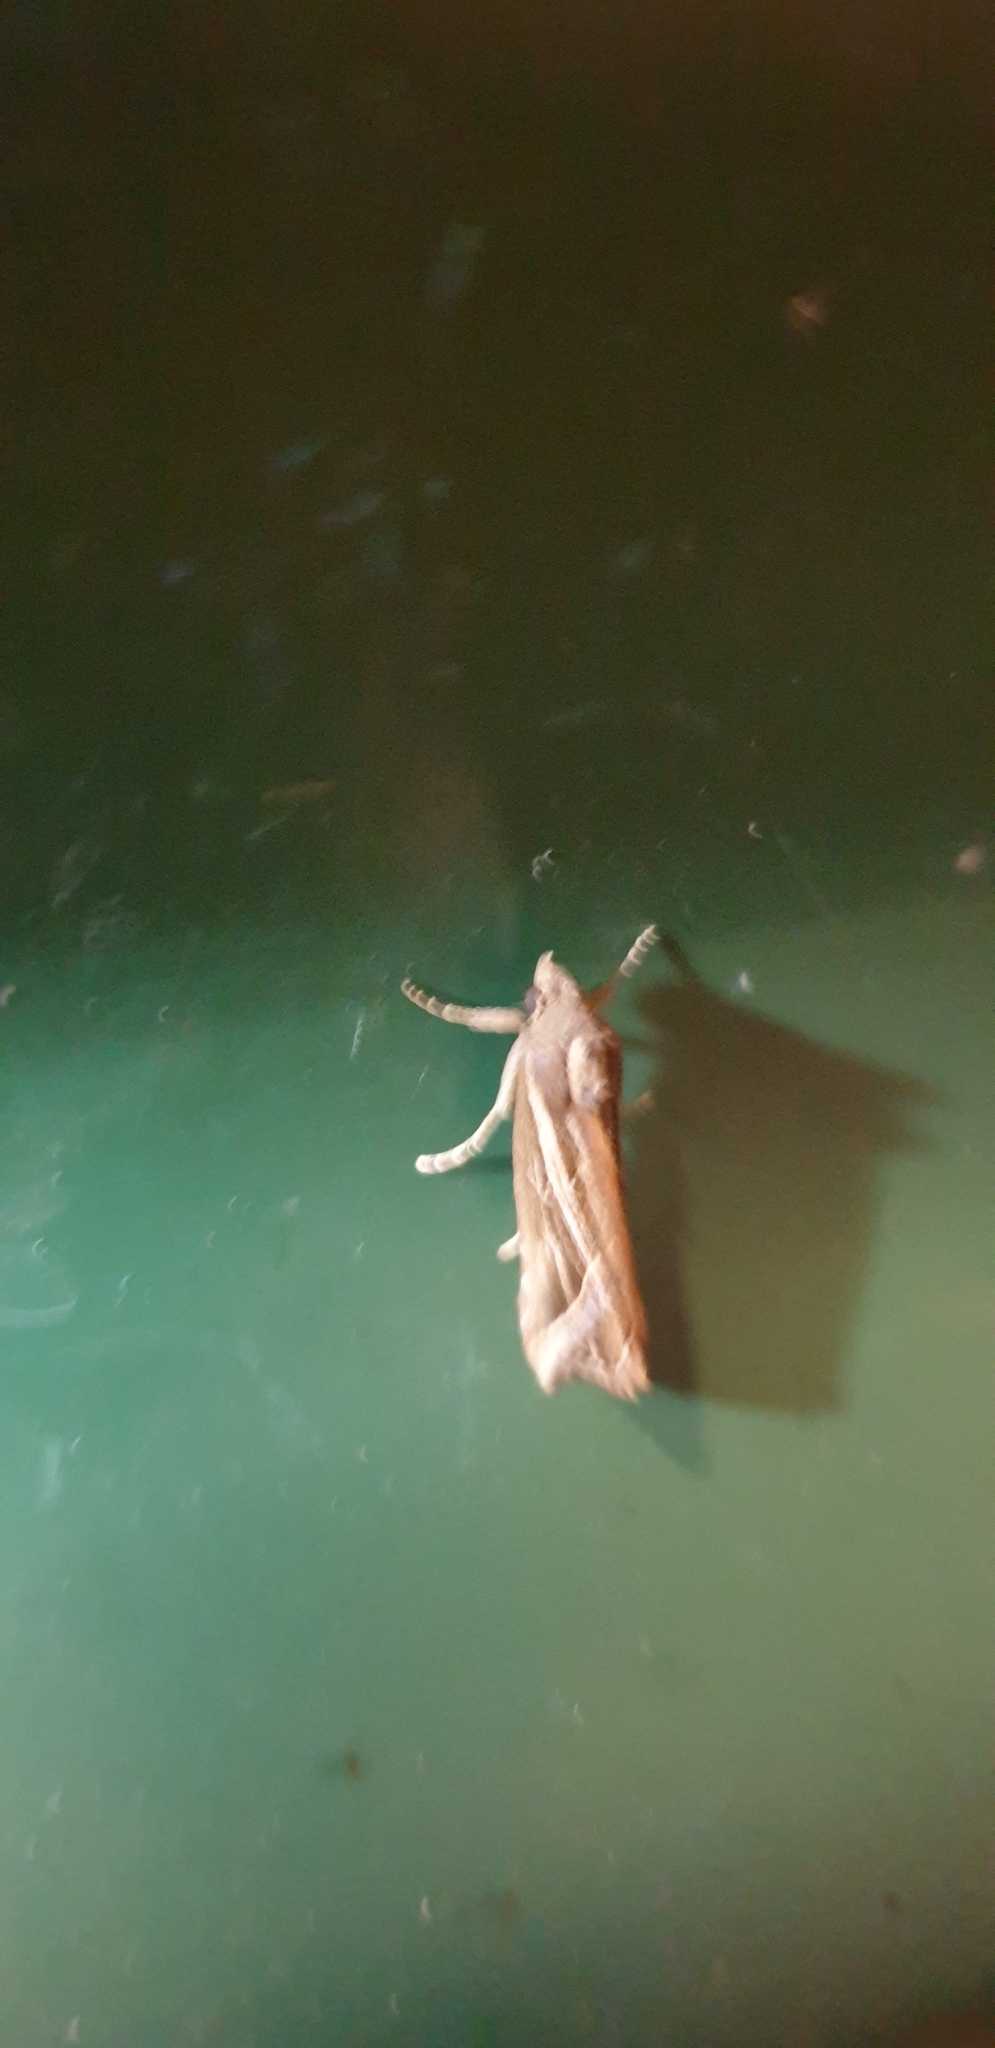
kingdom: Animalia
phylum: Arthropoda
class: Insecta
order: Lepidoptera
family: Erebidae
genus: Lophotoma
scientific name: Lophotoma diagrapha
